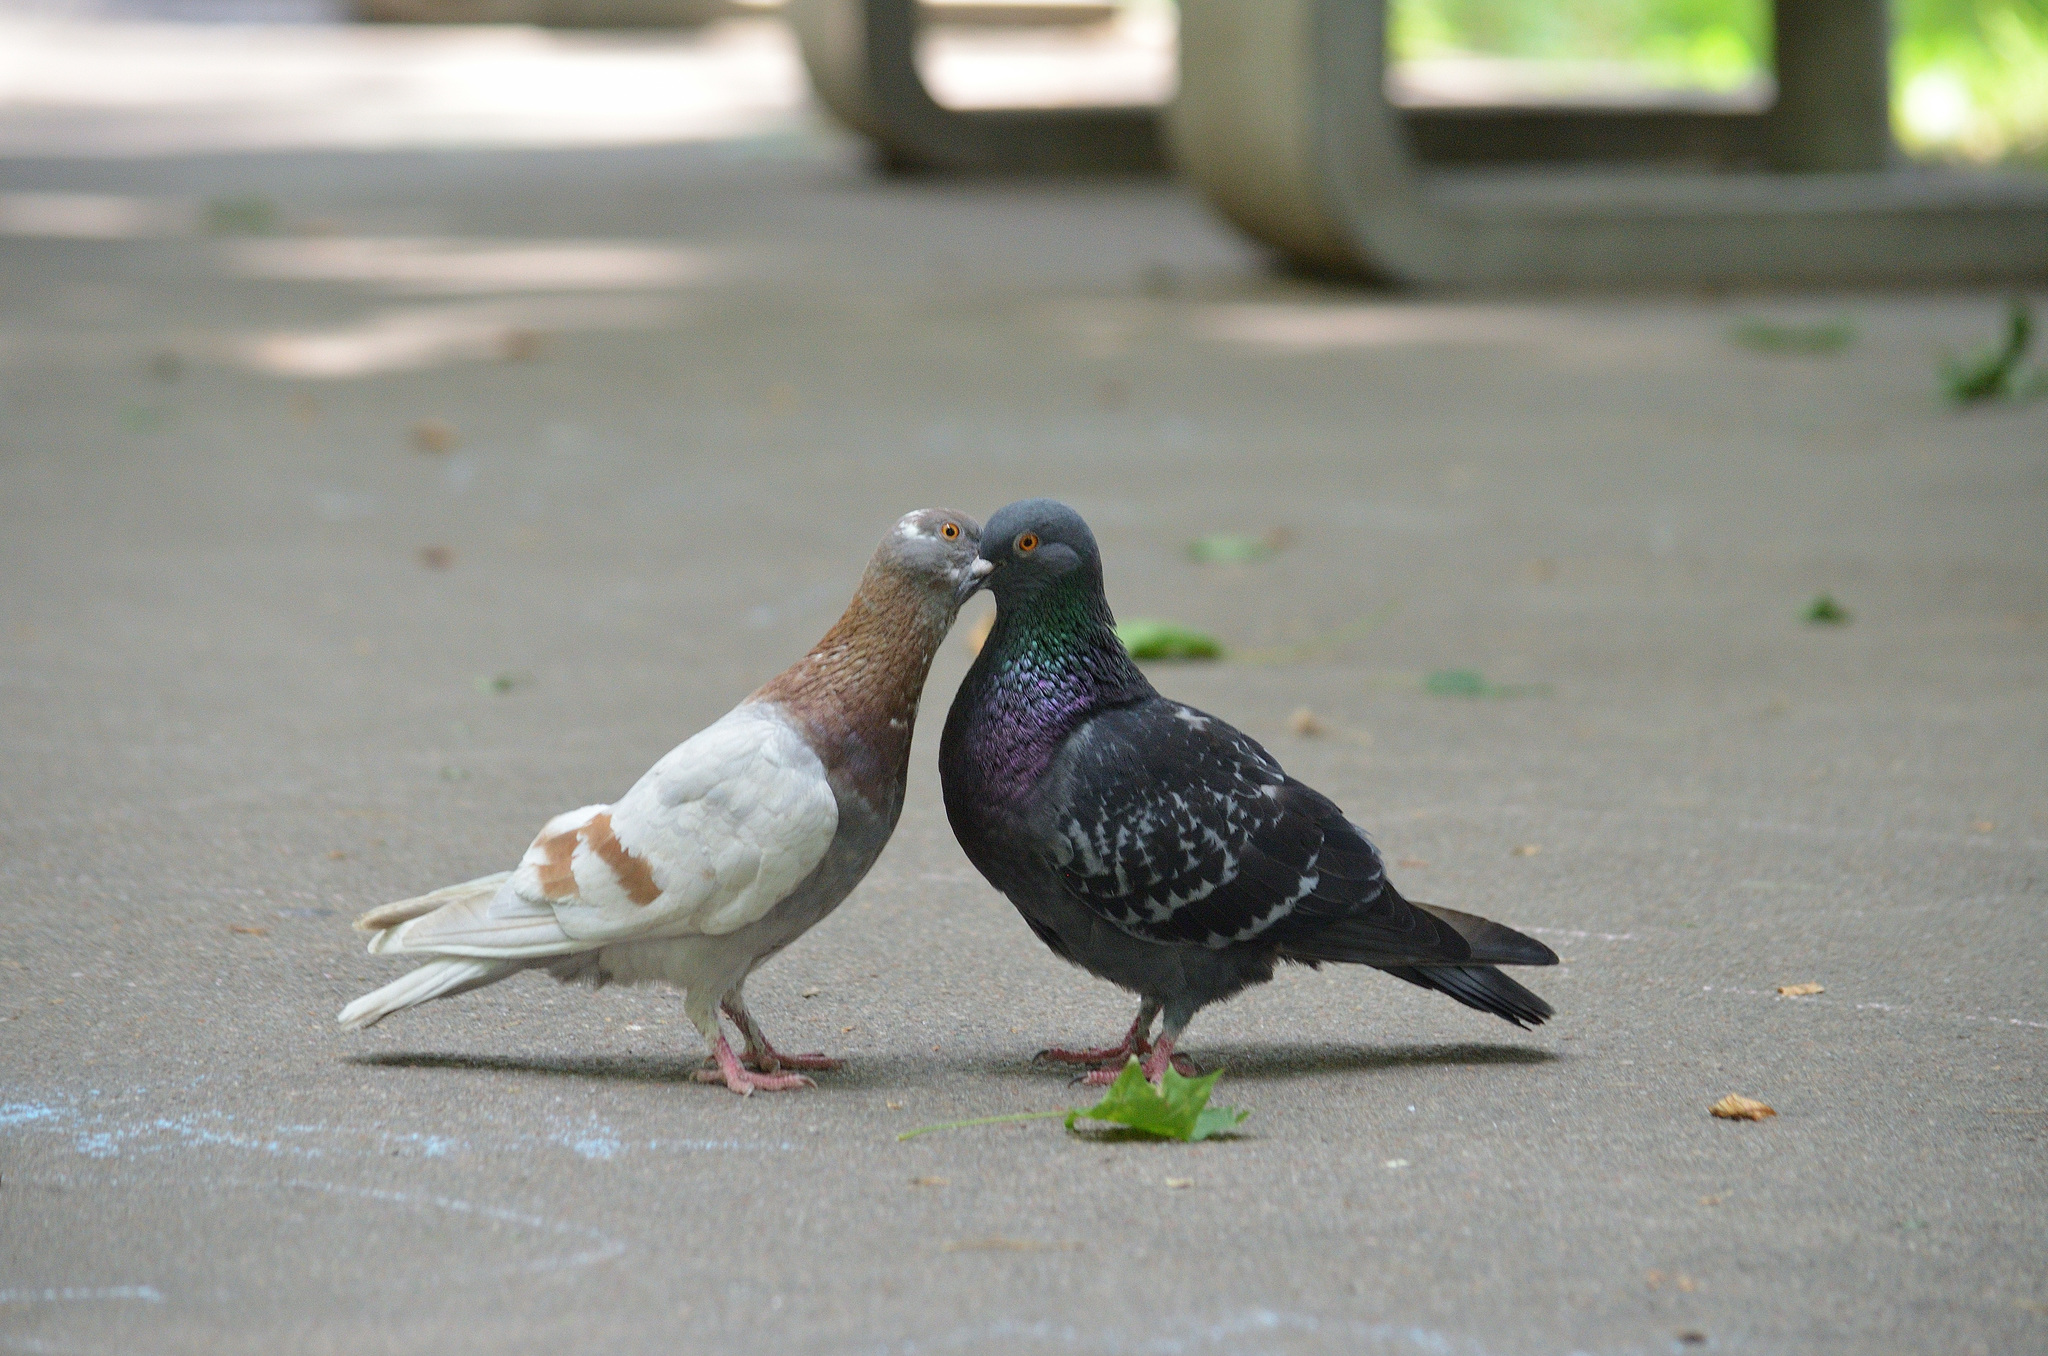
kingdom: Animalia
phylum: Chordata
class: Aves
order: Columbiformes
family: Columbidae
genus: Columba
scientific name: Columba livia
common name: Rock pigeon
